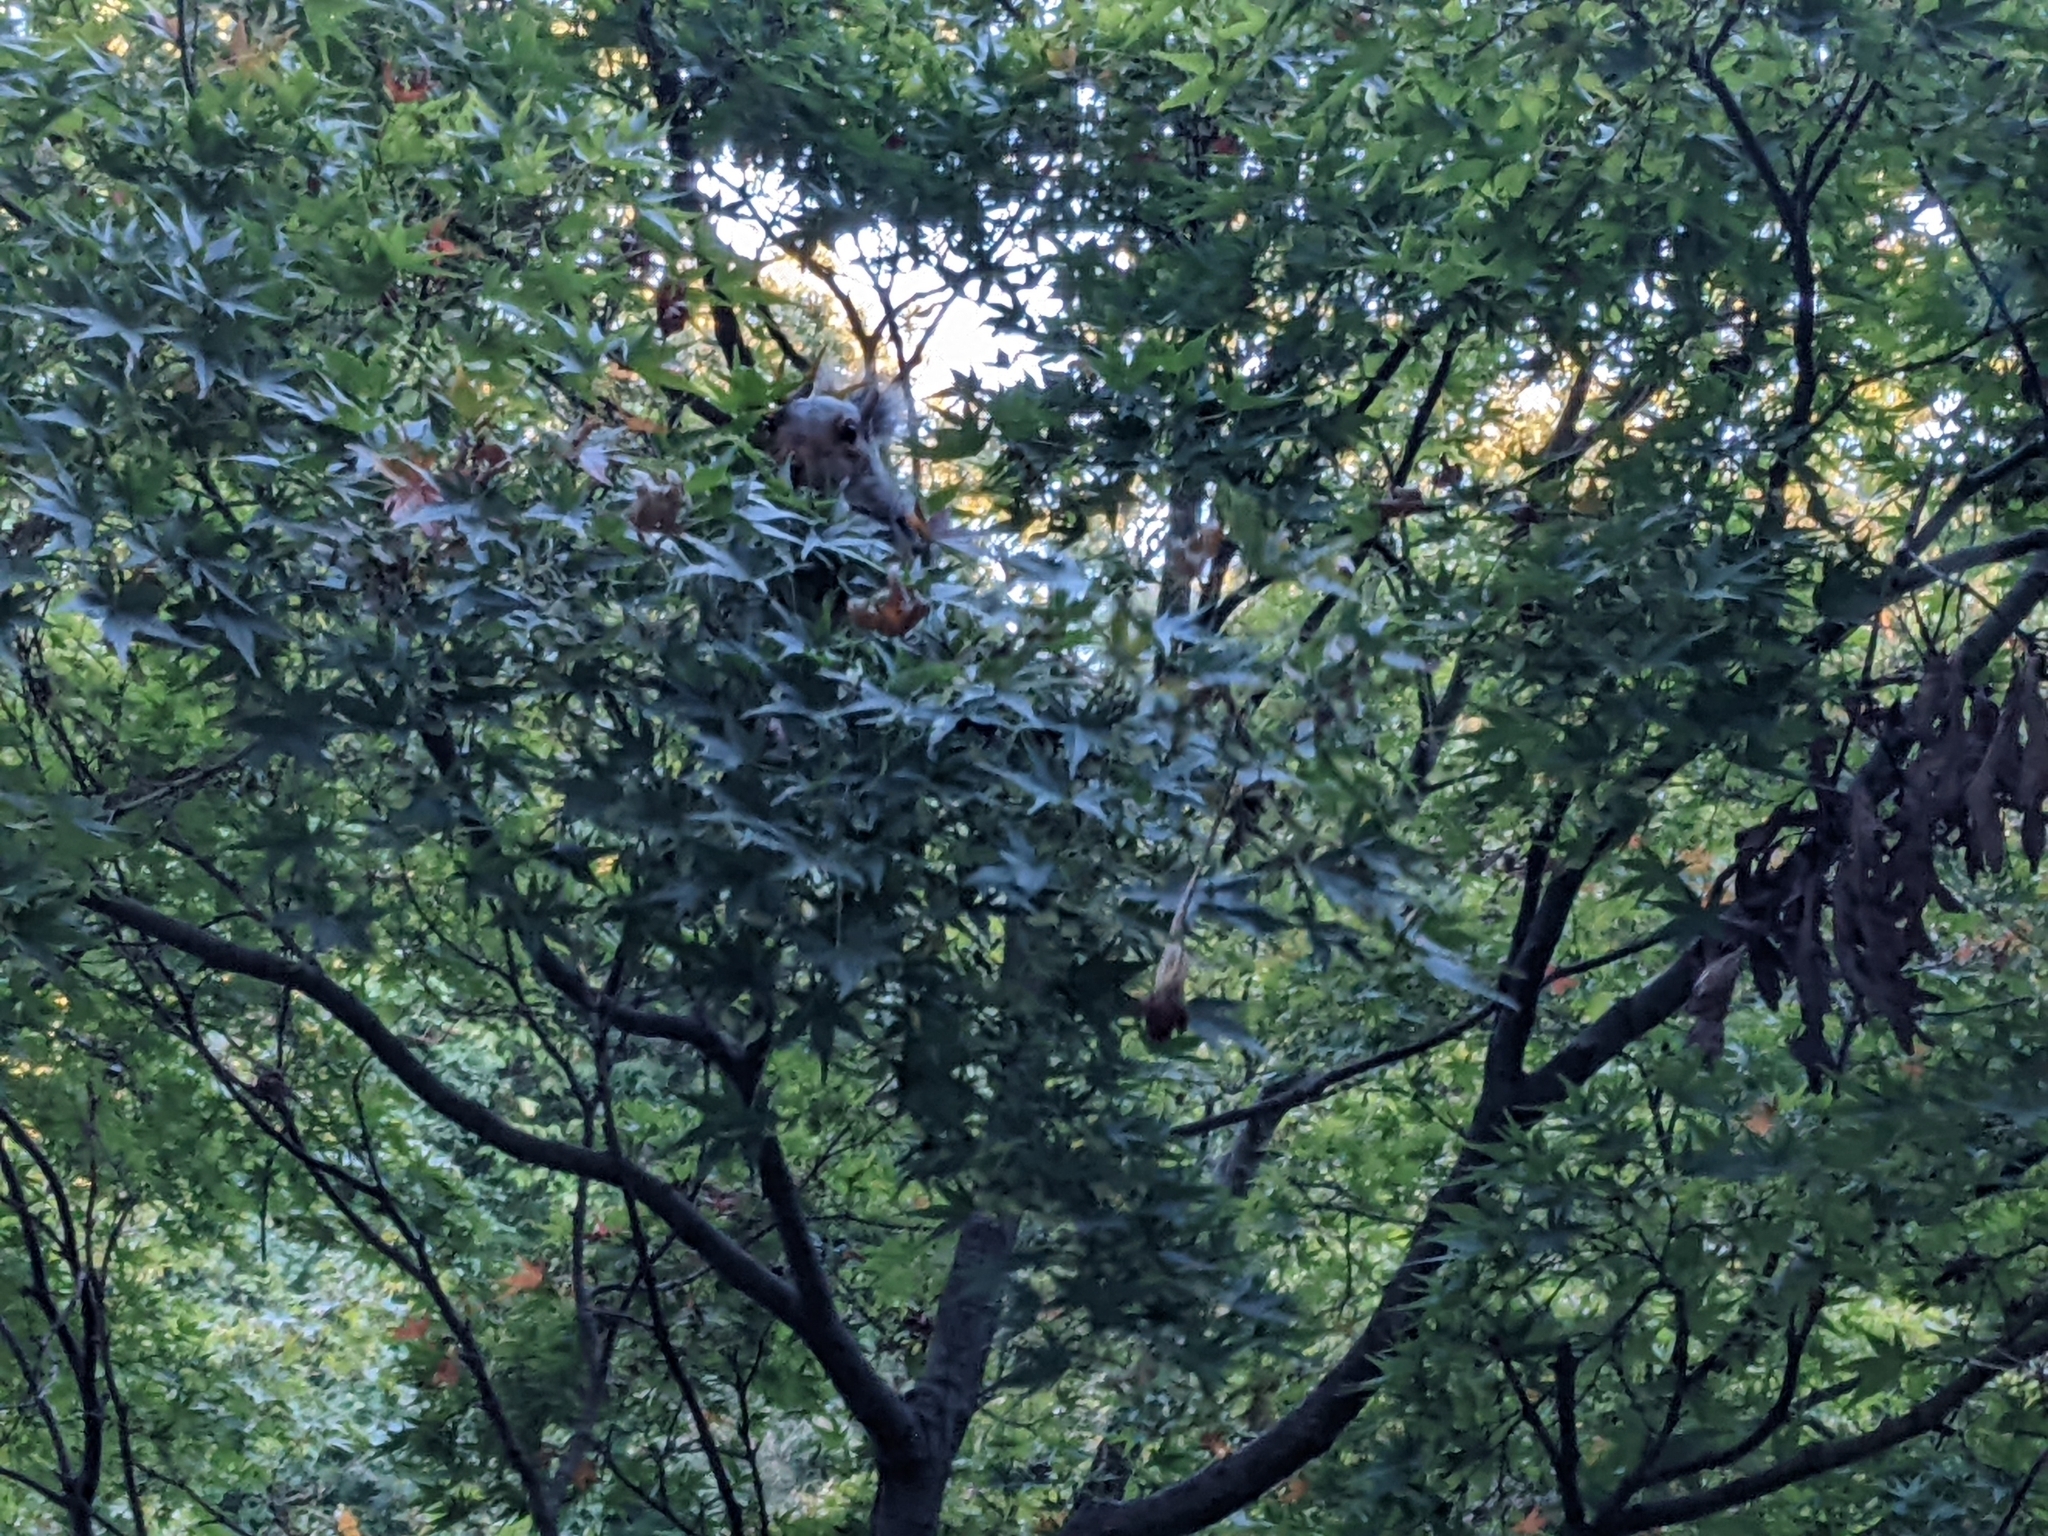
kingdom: Animalia
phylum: Chordata
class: Mammalia
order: Rodentia
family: Sciuridae
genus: Sciurus
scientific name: Sciurus carolinensis
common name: Eastern gray squirrel
